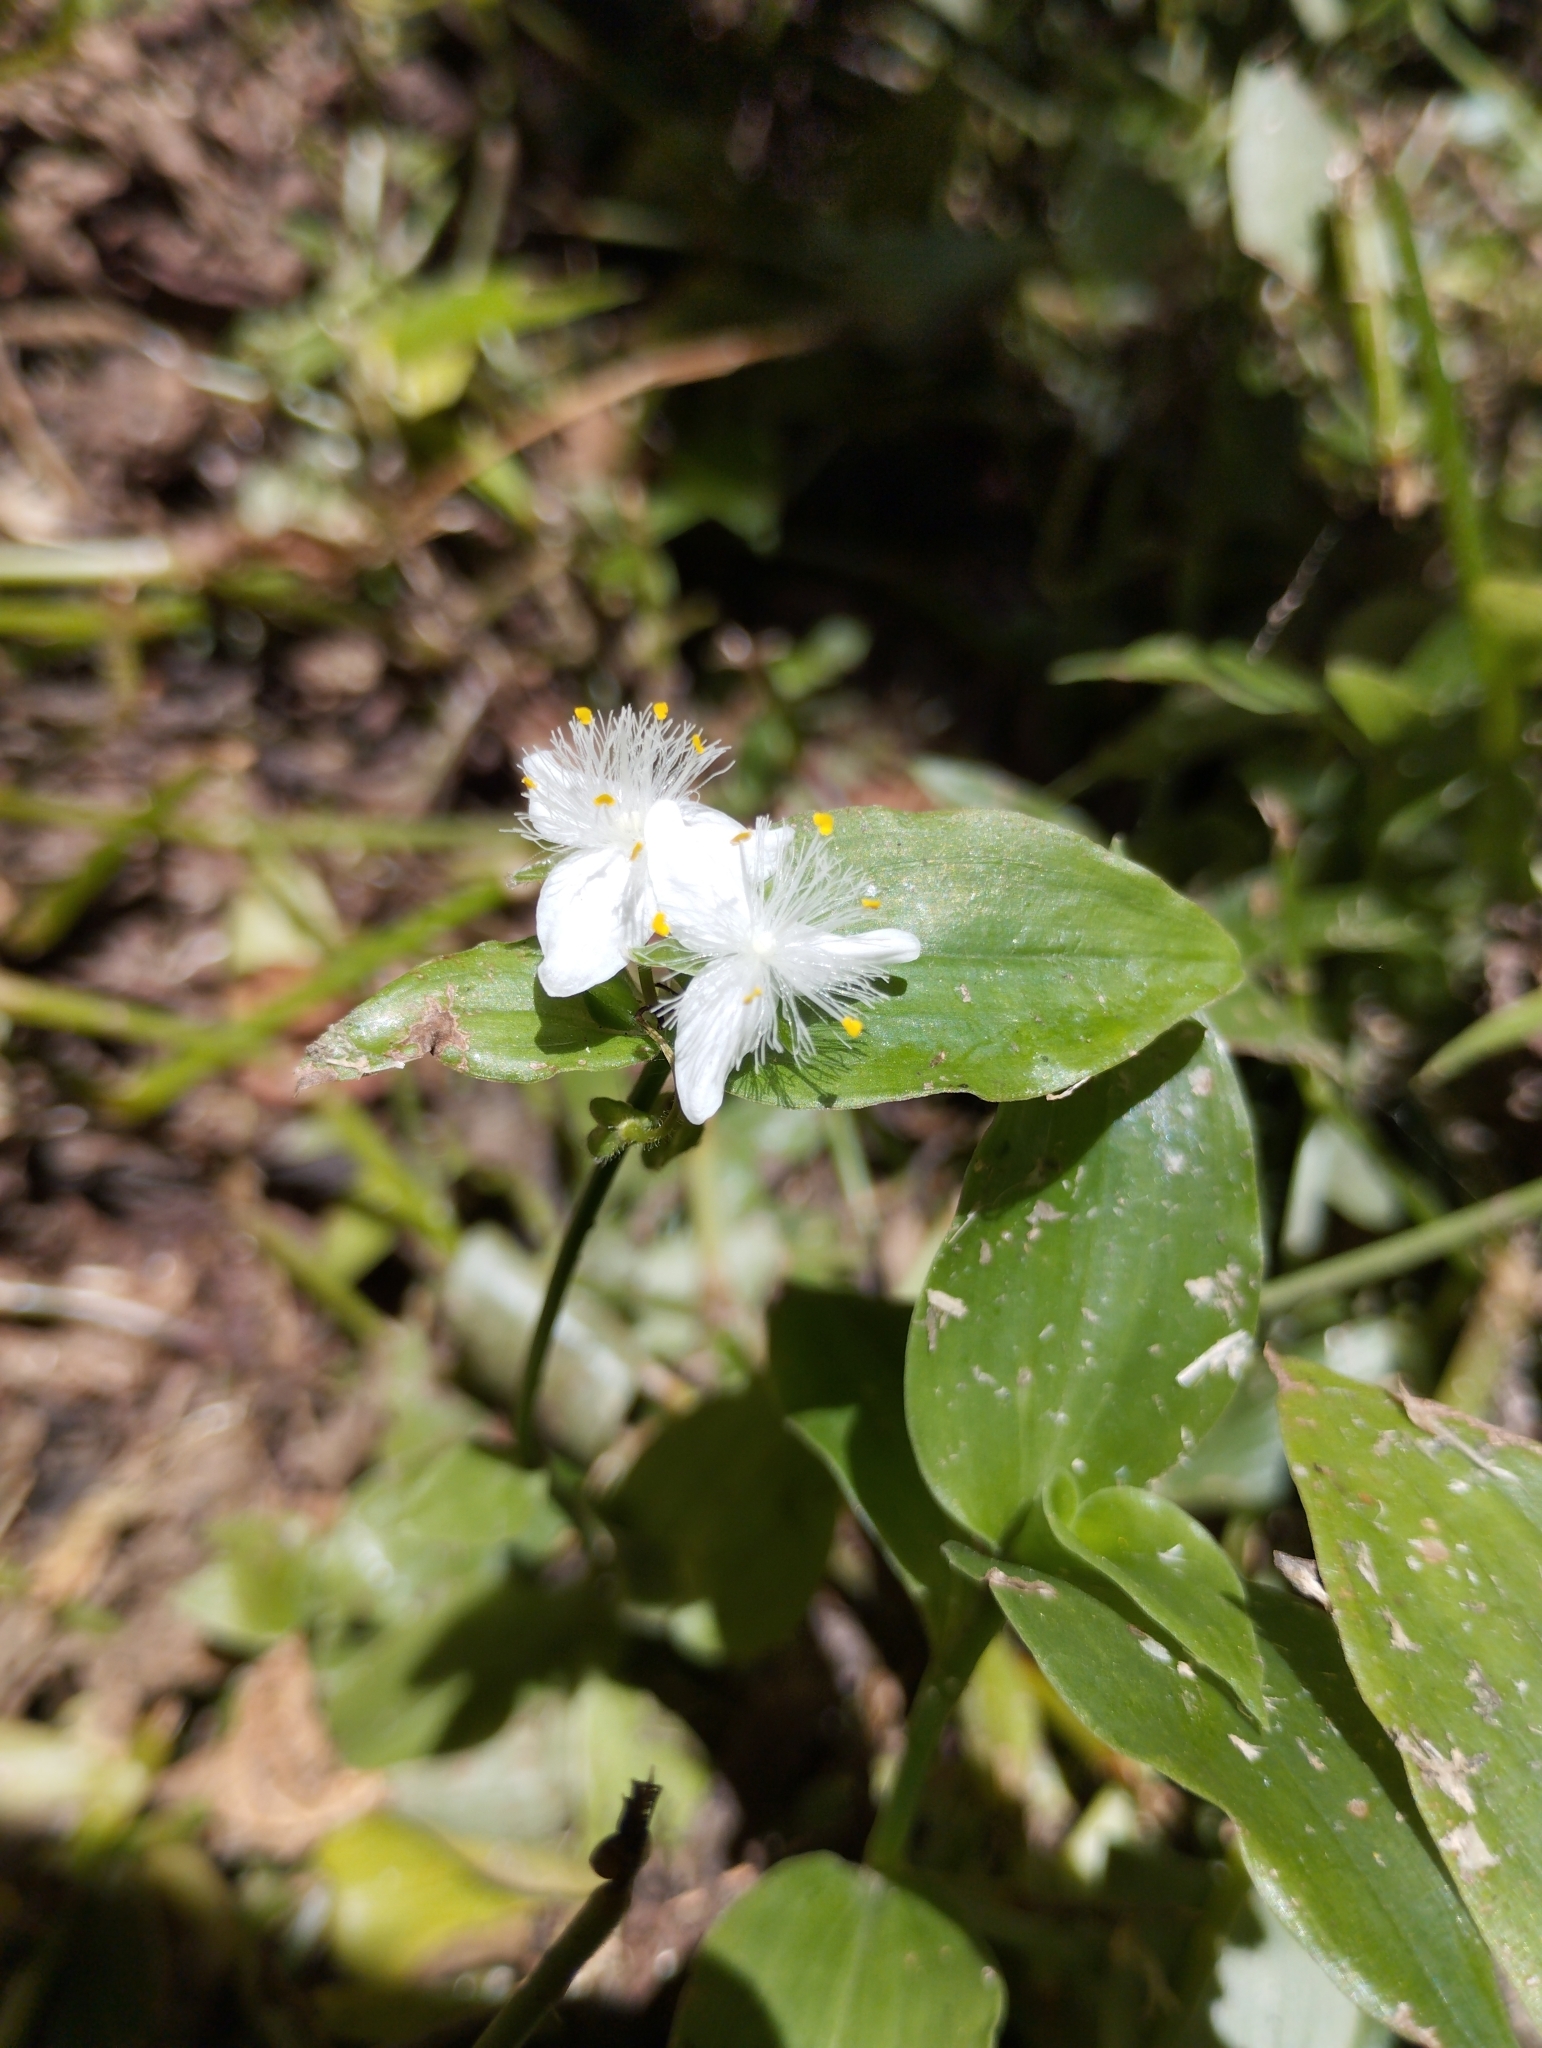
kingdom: Plantae
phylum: Tracheophyta
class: Liliopsida
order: Commelinales
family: Commelinaceae
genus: Tradescantia
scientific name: Tradescantia fluminensis
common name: Wandering-jew
